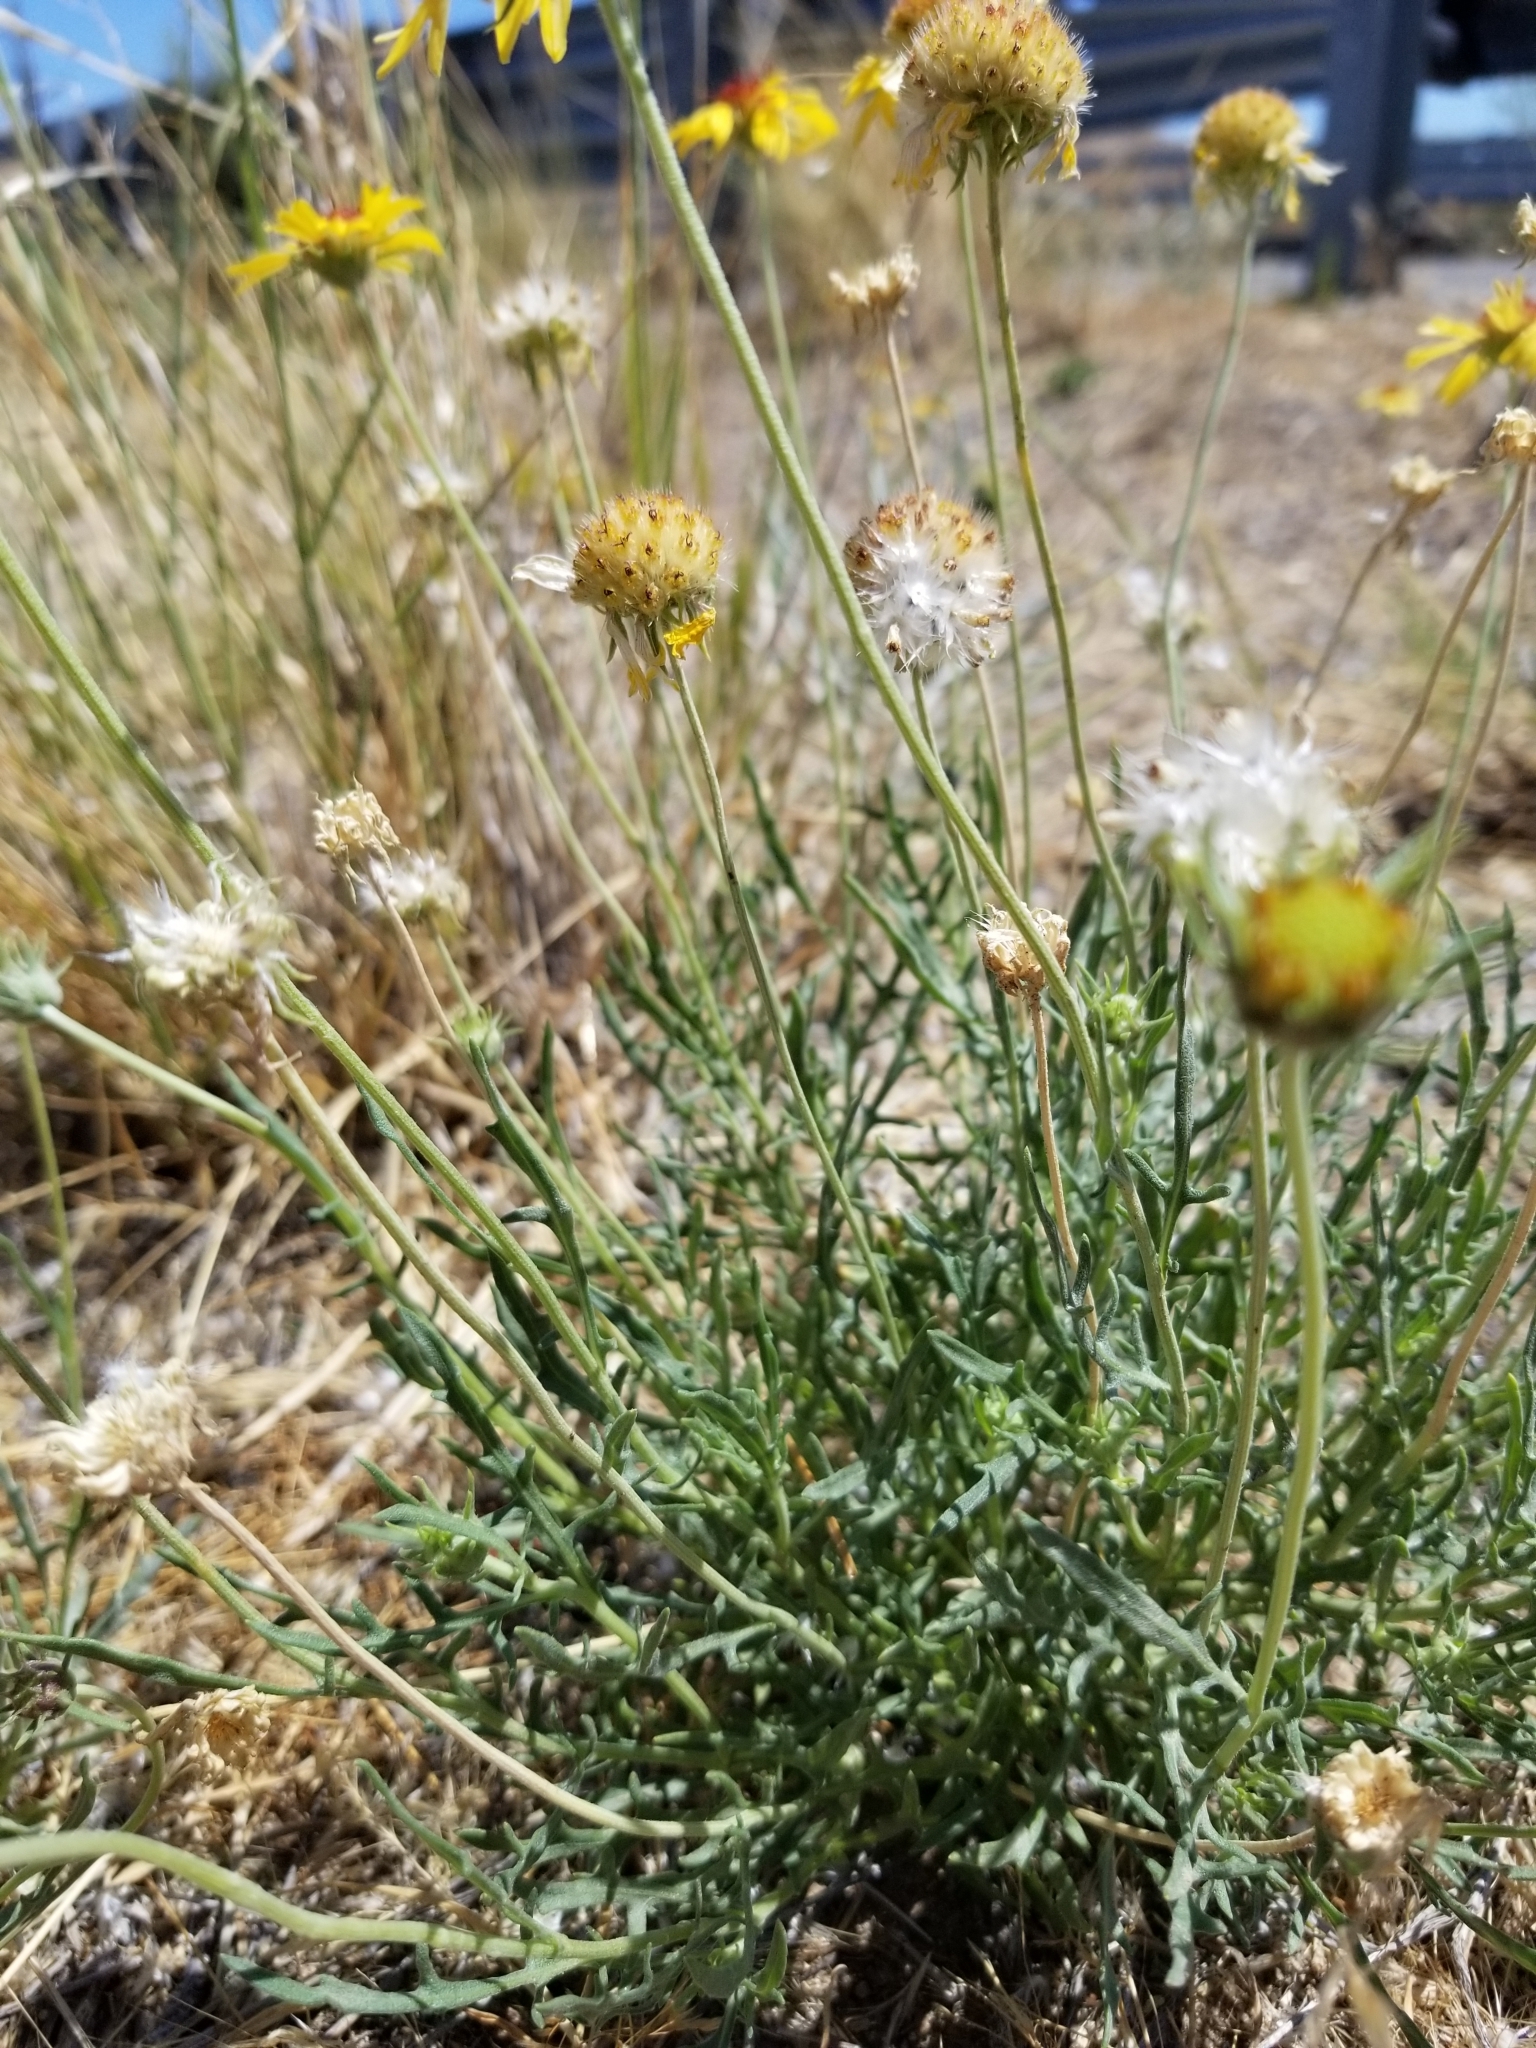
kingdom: Plantae
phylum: Tracheophyta
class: Magnoliopsida
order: Asterales
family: Asteraceae
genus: Gaillardia
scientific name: Gaillardia pinnatifida
